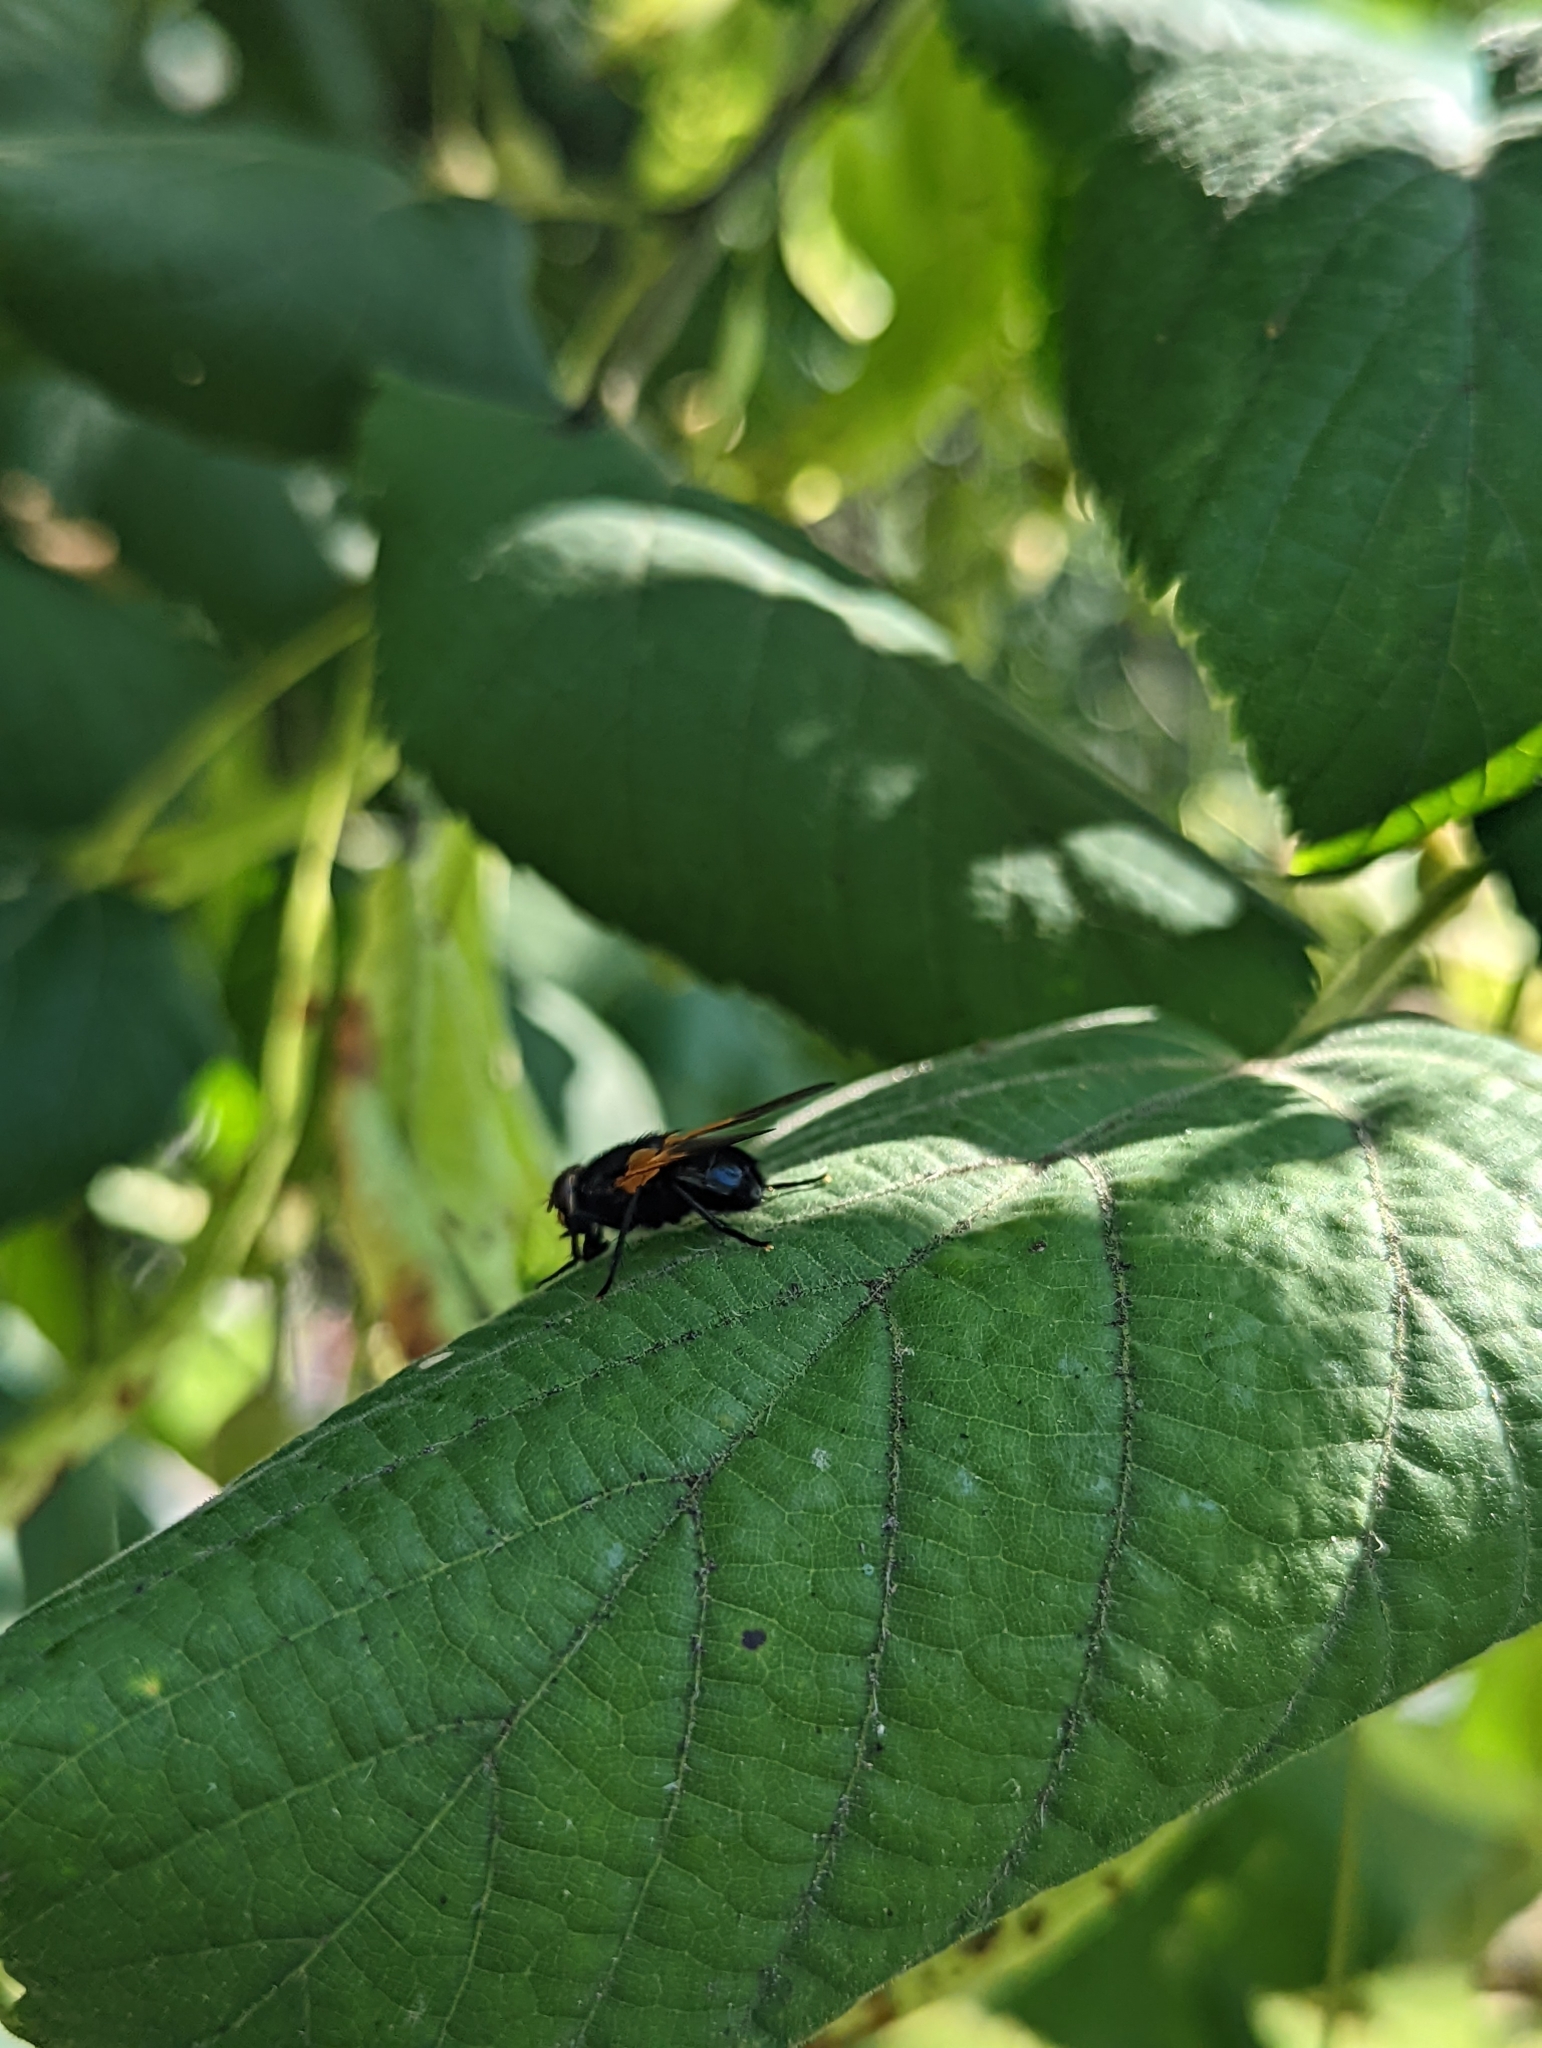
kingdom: Animalia
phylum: Arthropoda
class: Insecta
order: Diptera
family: Muscidae
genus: Mesembrina
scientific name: Mesembrina meridiana
